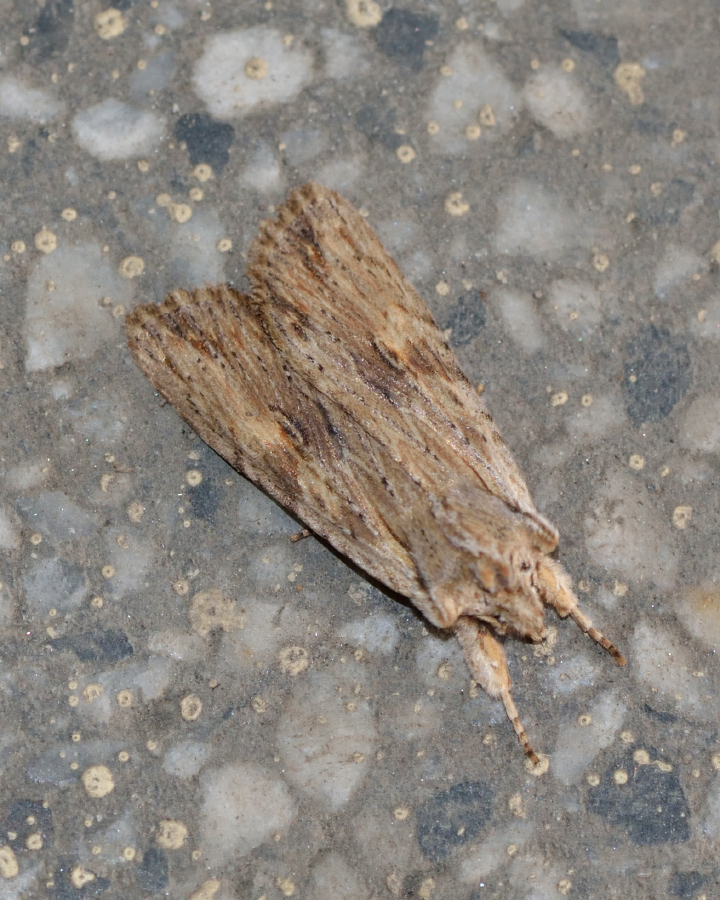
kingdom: Animalia
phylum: Arthropoda
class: Insecta
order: Lepidoptera
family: Noctuidae
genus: Lithophane
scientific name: Lithophane socia
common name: Pale pinion
